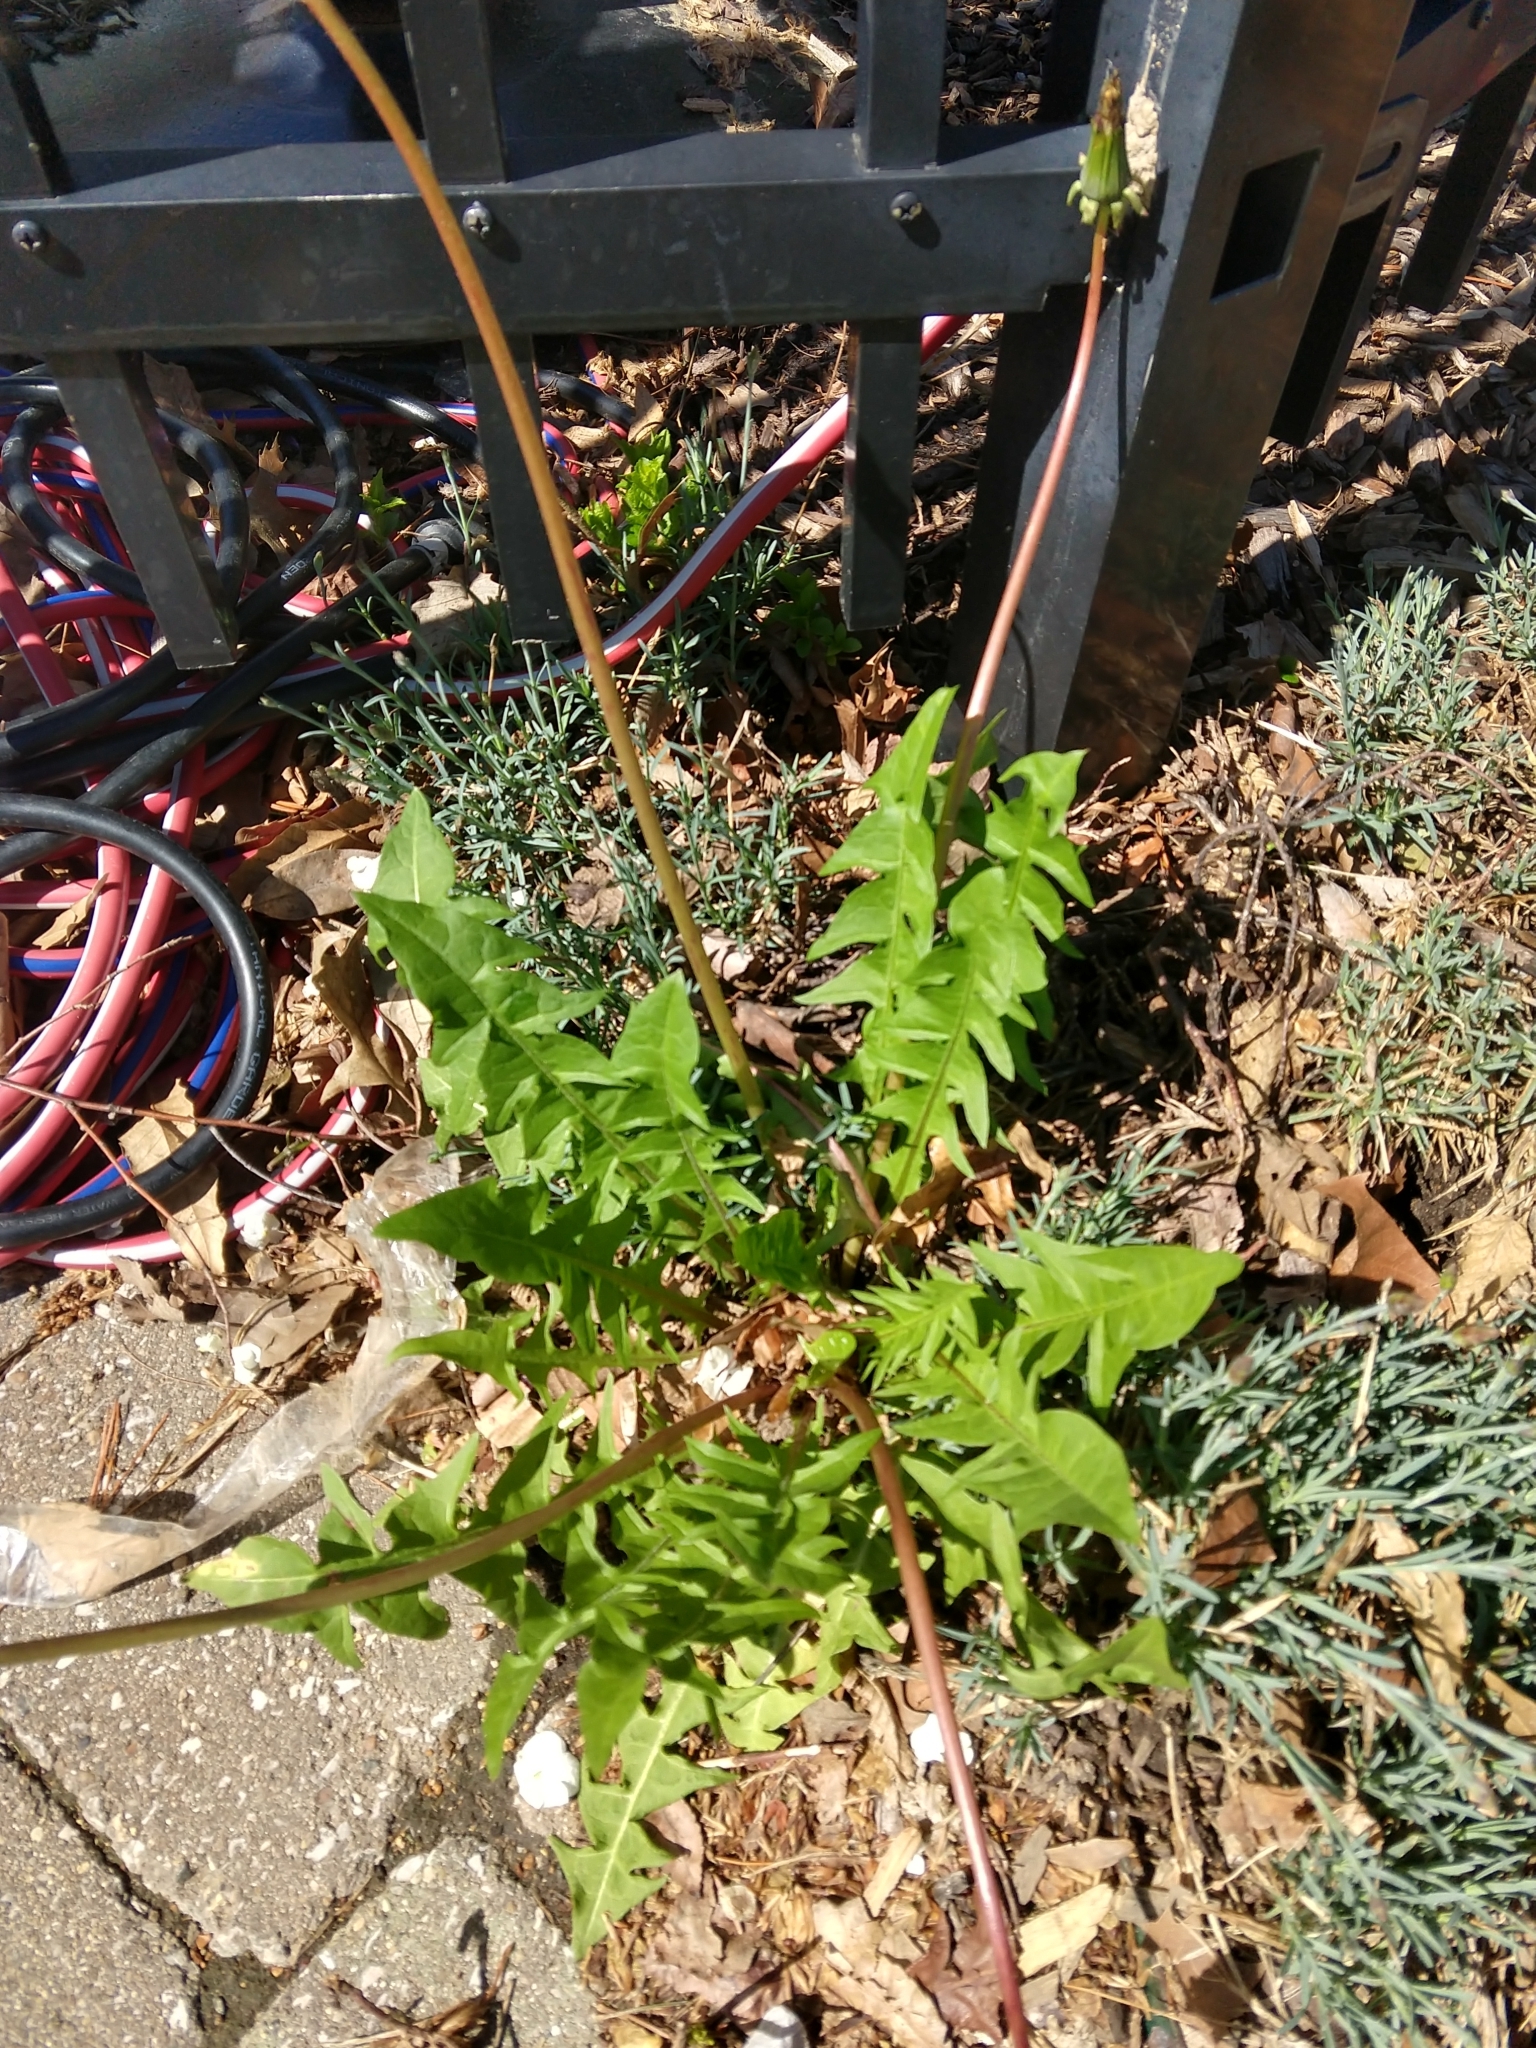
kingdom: Plantae
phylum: Tracheophyta
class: Magnoliopsida
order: Asterales
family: Asteraceae
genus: Taraxacum
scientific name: Taraxacum officinale
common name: Common dandelion
